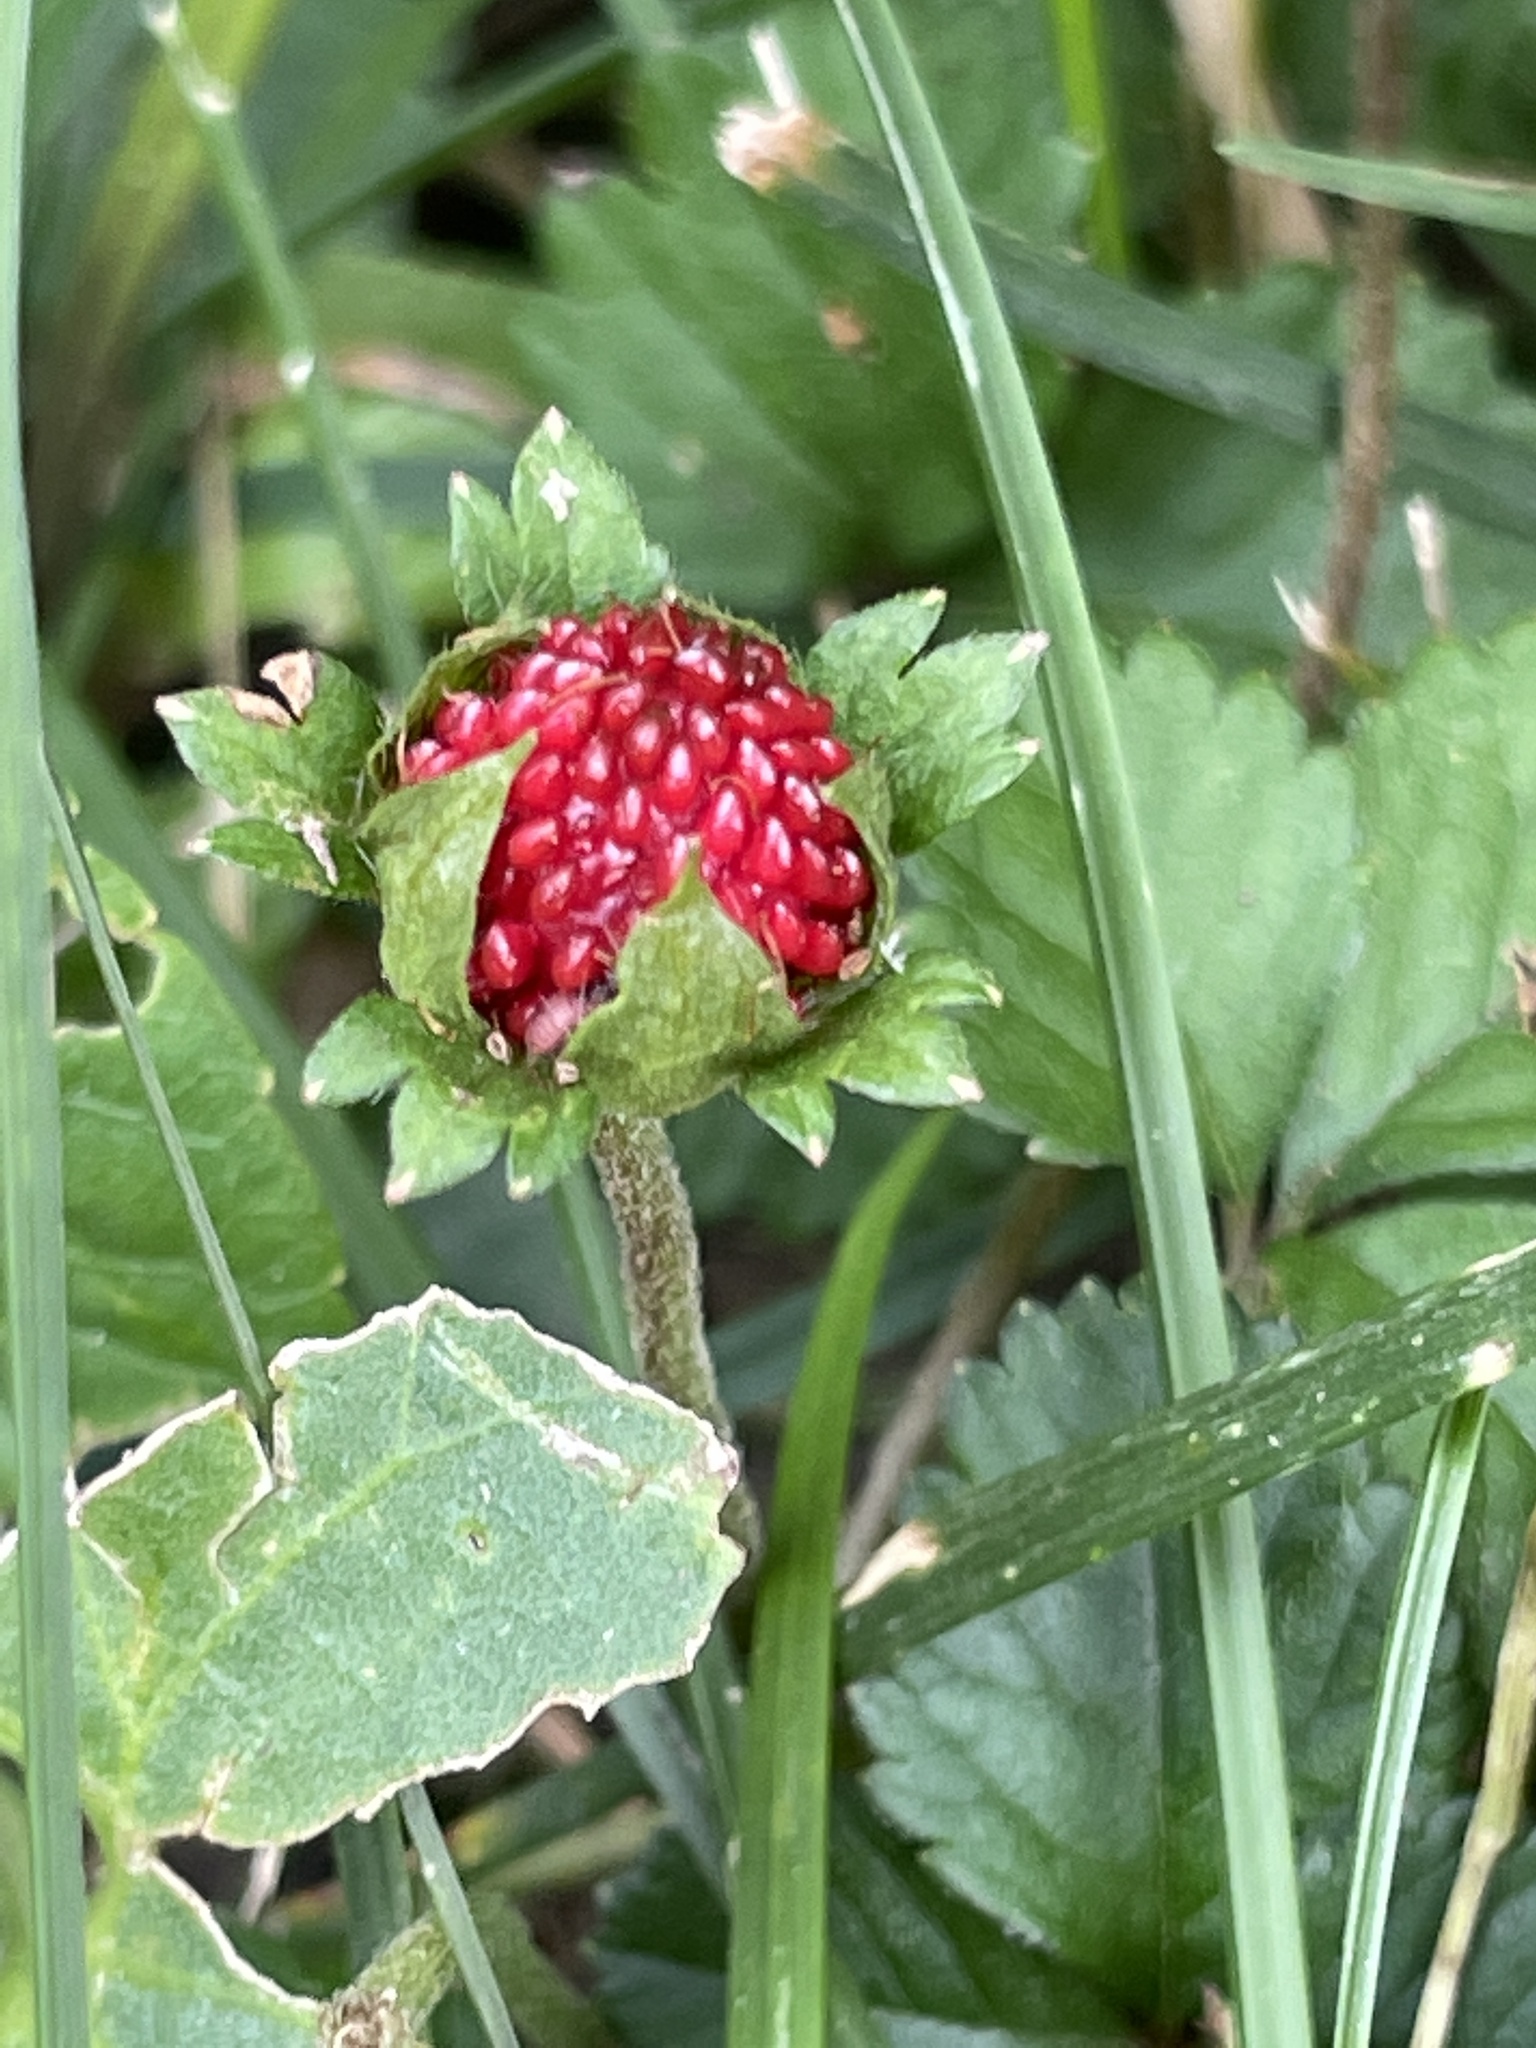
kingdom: Plantae
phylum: Tracheophyta
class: Magnoliopsida
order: Rosales
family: Rosaceae
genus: Potentilla
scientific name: Potentilla indica
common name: Yellow-flowered strawberry
